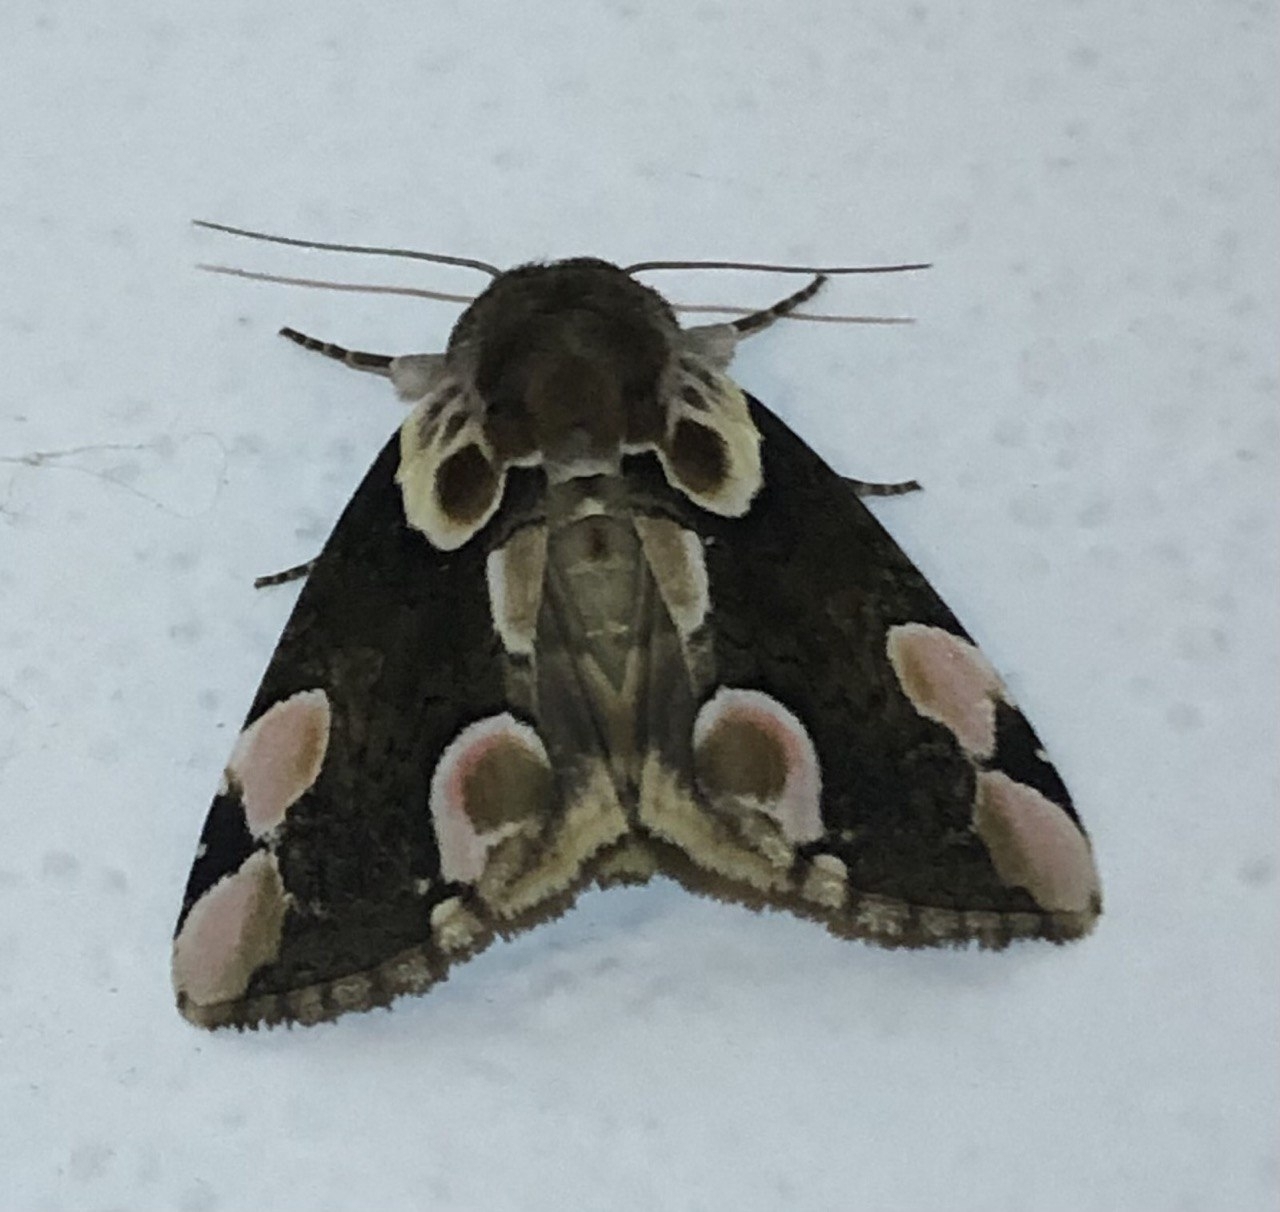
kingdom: Animalia
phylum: Arthropoda
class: Insecta
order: Lepidoptera
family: Drepanidae
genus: Thyatira
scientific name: Thyatira batis
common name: Peach blossom
